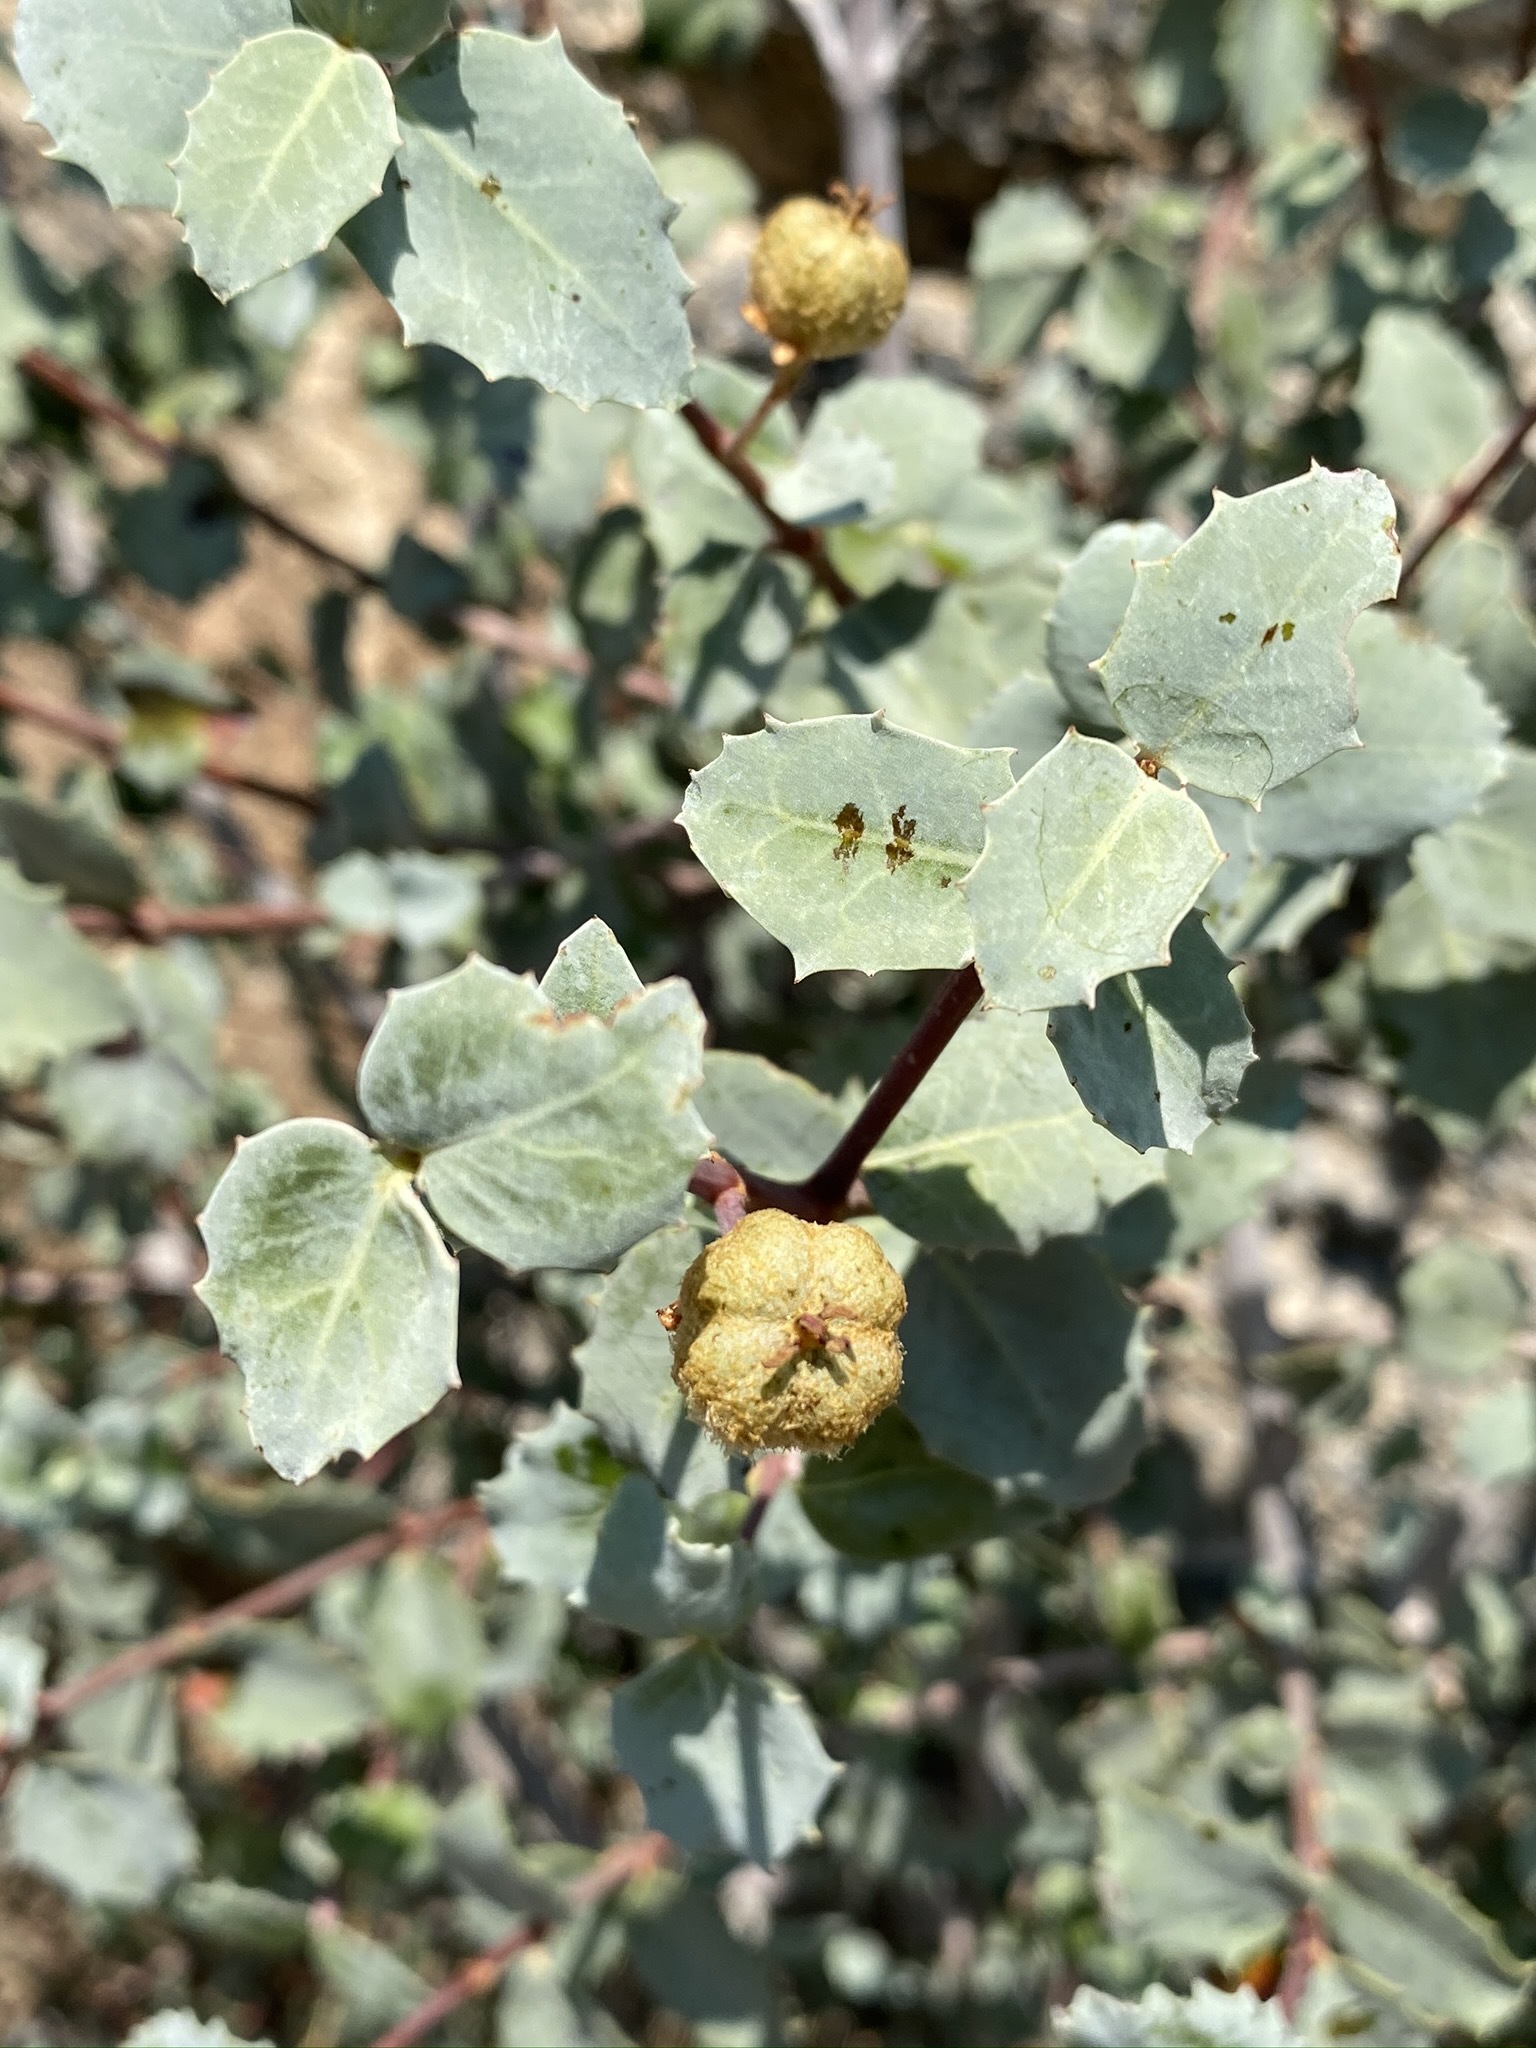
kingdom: Plantae
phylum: Tracheophyta
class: Magnoliopsida
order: Malpighiales
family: Picrodendraceae
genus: Tetracoccus
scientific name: Tetracoccus ilicifolius
